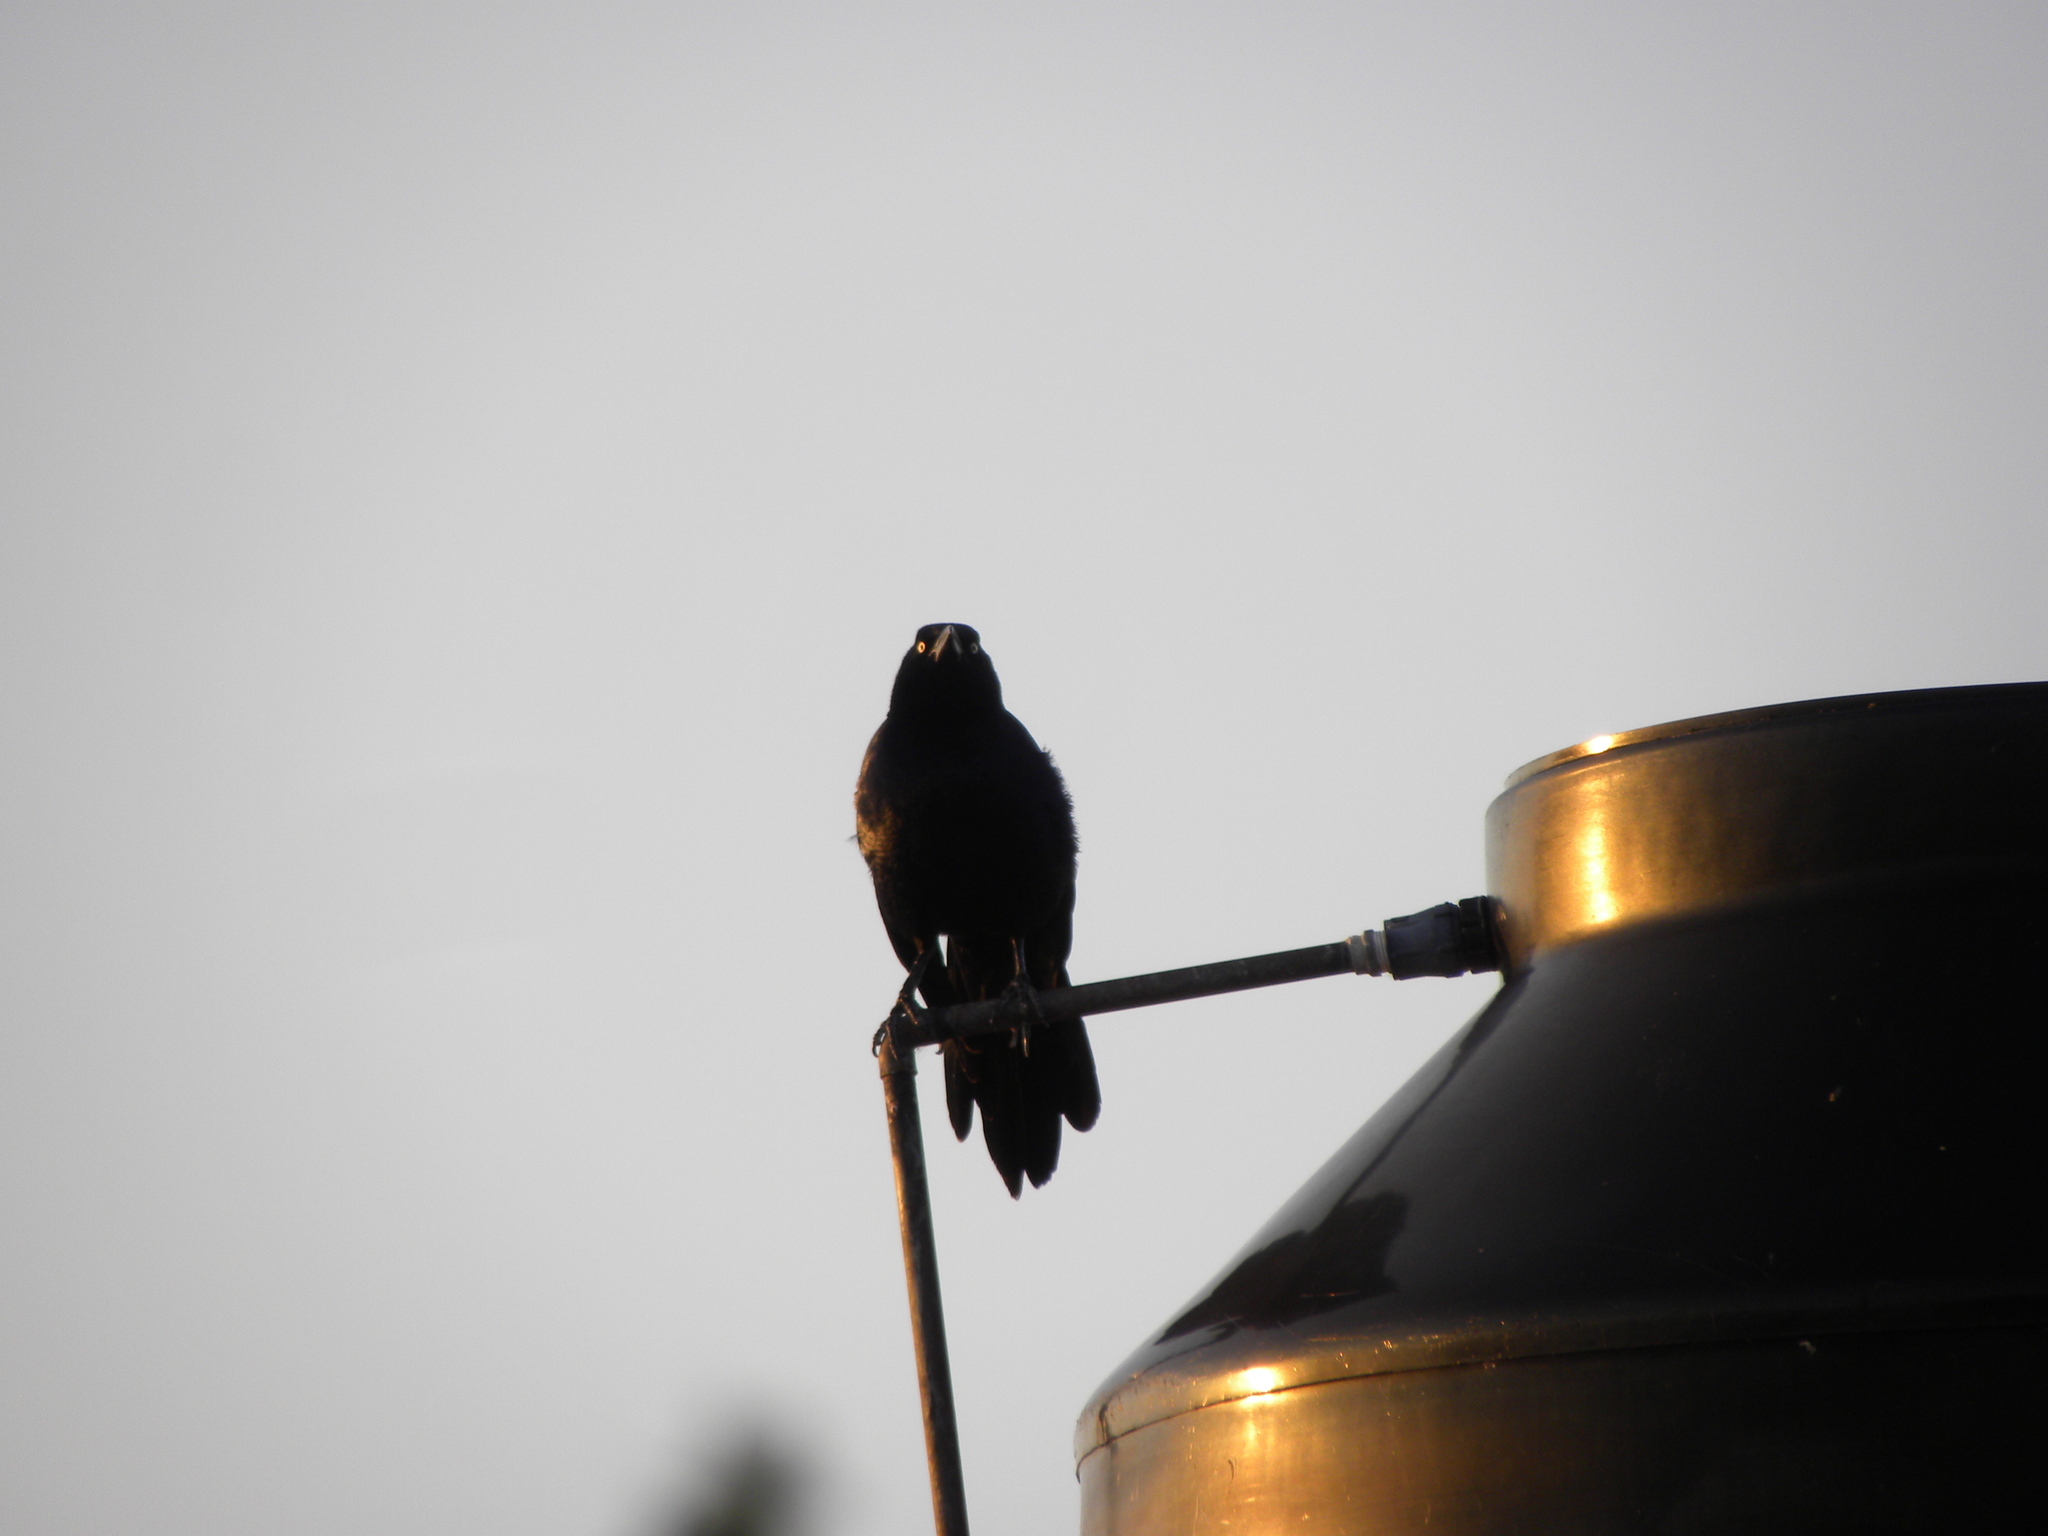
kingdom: Animalia
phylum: Chordata
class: Aves
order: Passeriformes
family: Icteridae
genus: Quiscalus
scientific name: Quiscalus mexicanus
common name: Great-tailed grackle
